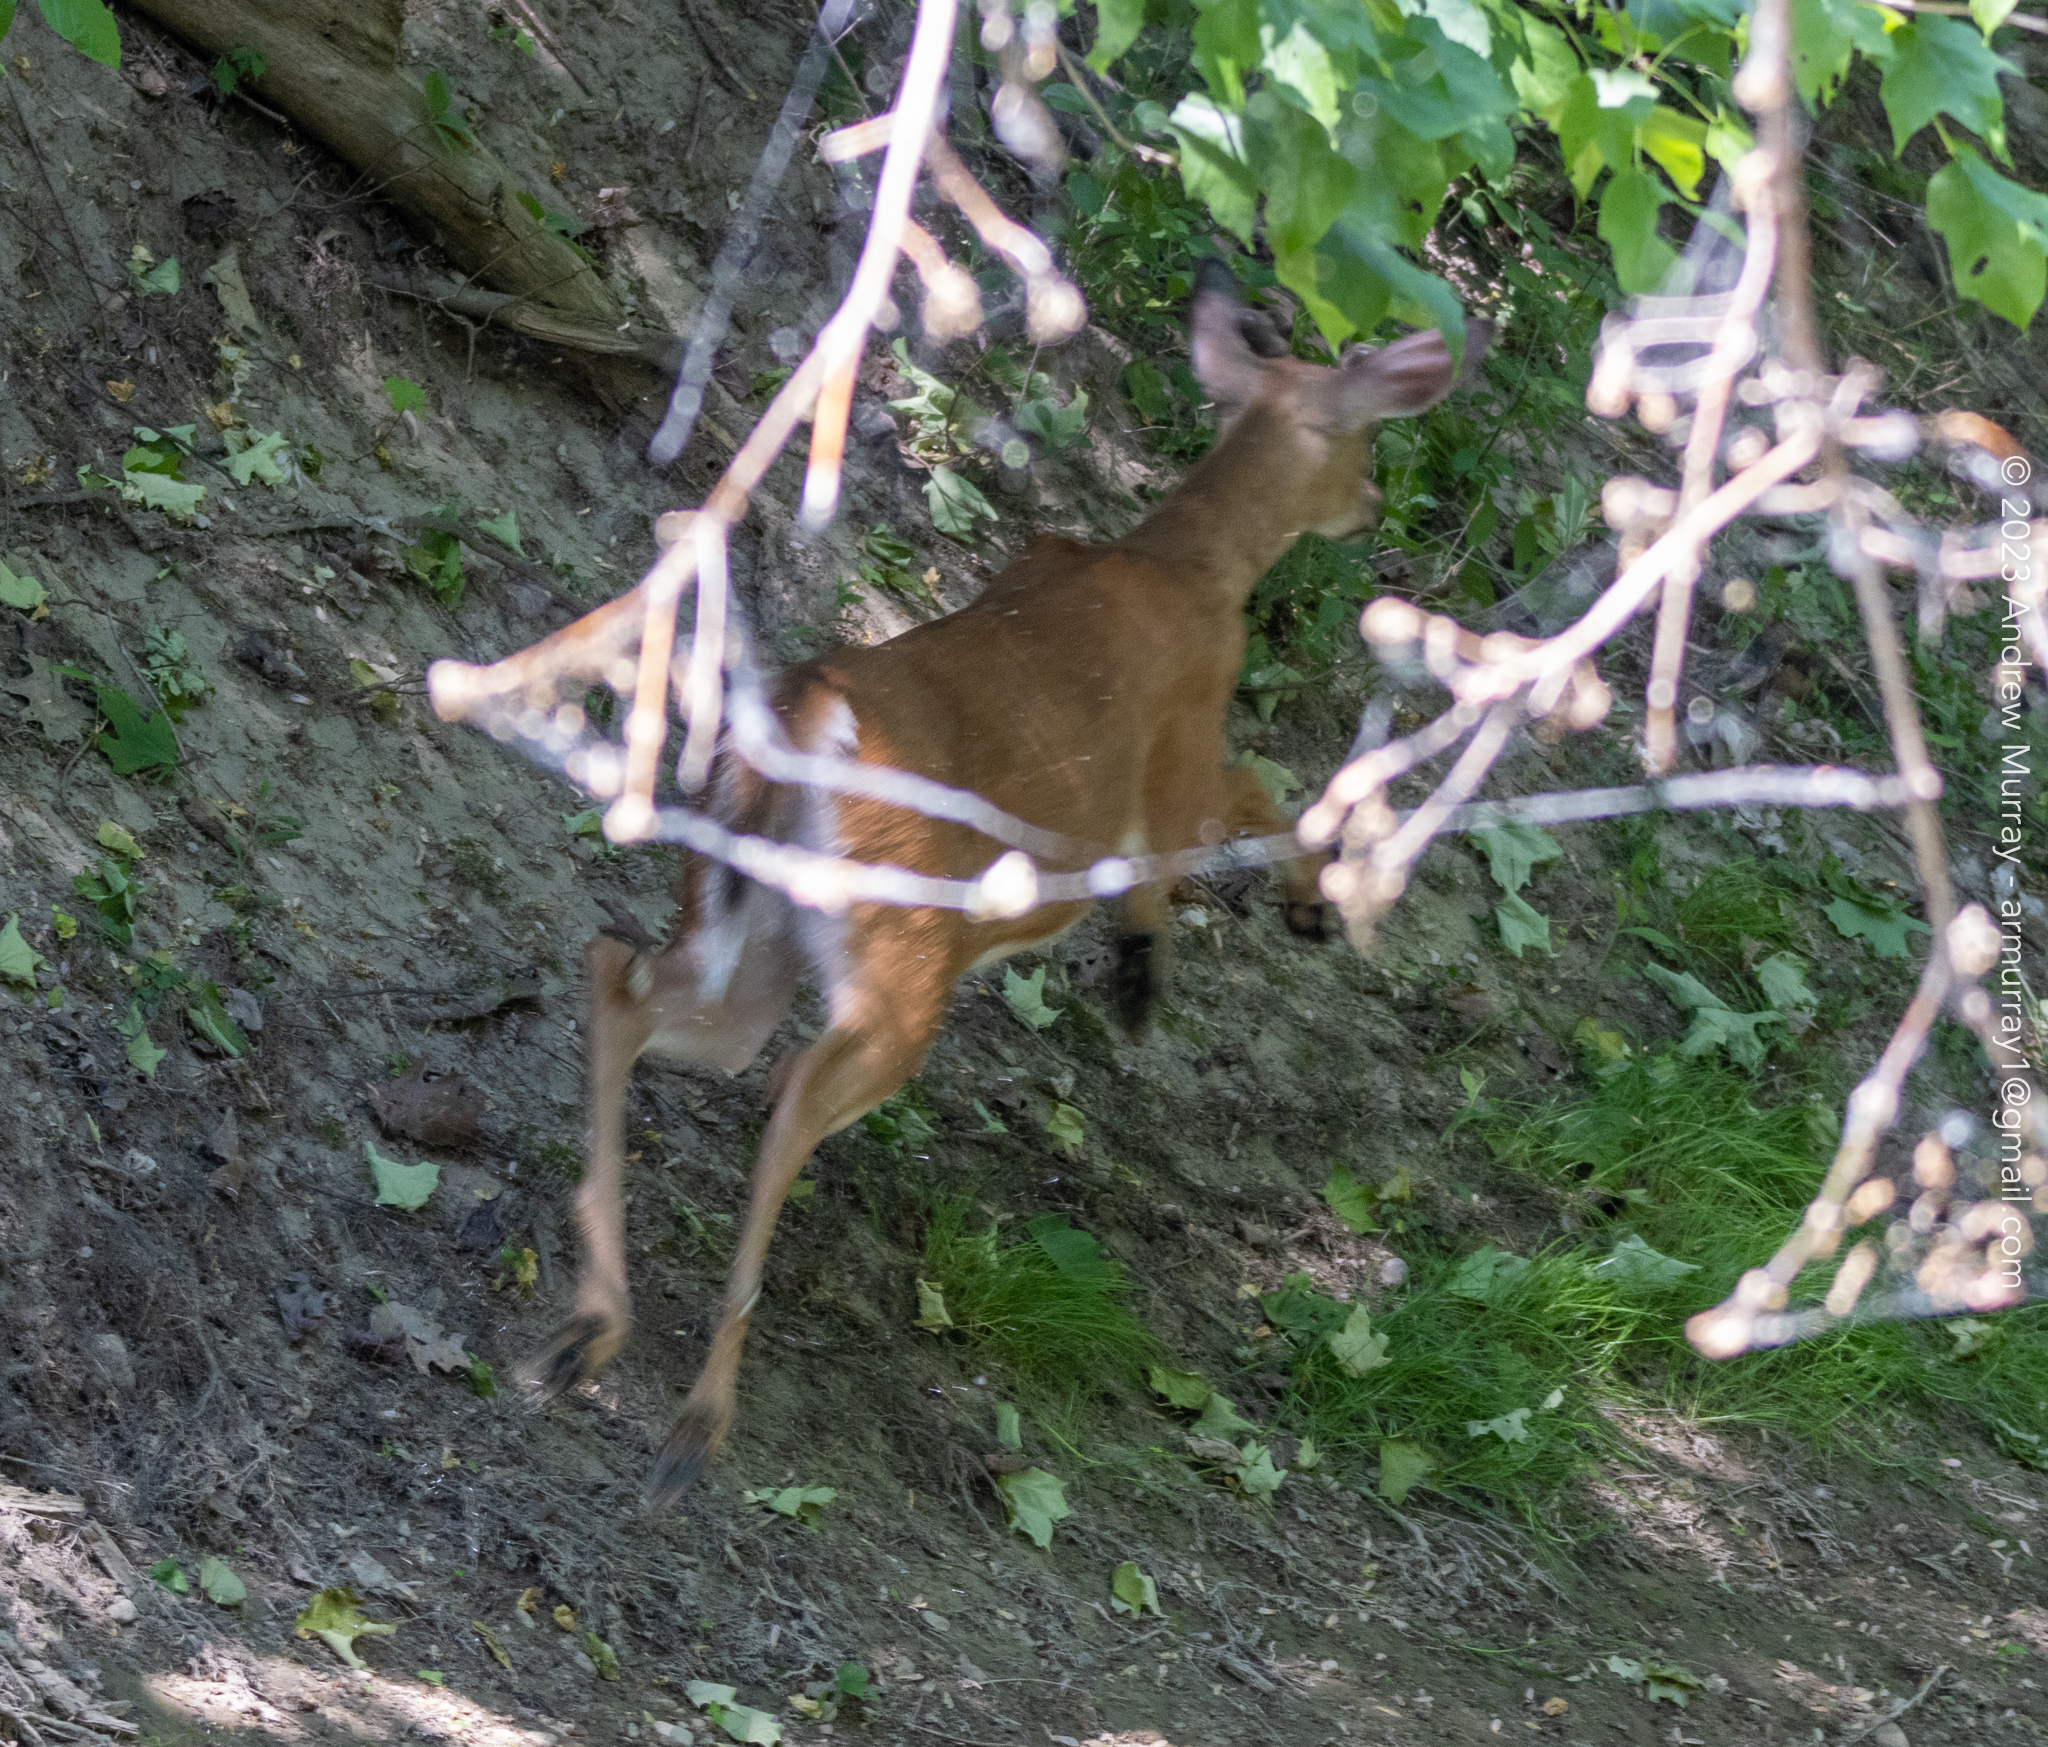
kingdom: Animalia
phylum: Chordata
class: Mammalia
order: Artiodactyla
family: Cervidae
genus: Odocoileus
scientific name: Odocoileus virginianus
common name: White-tailed deer
